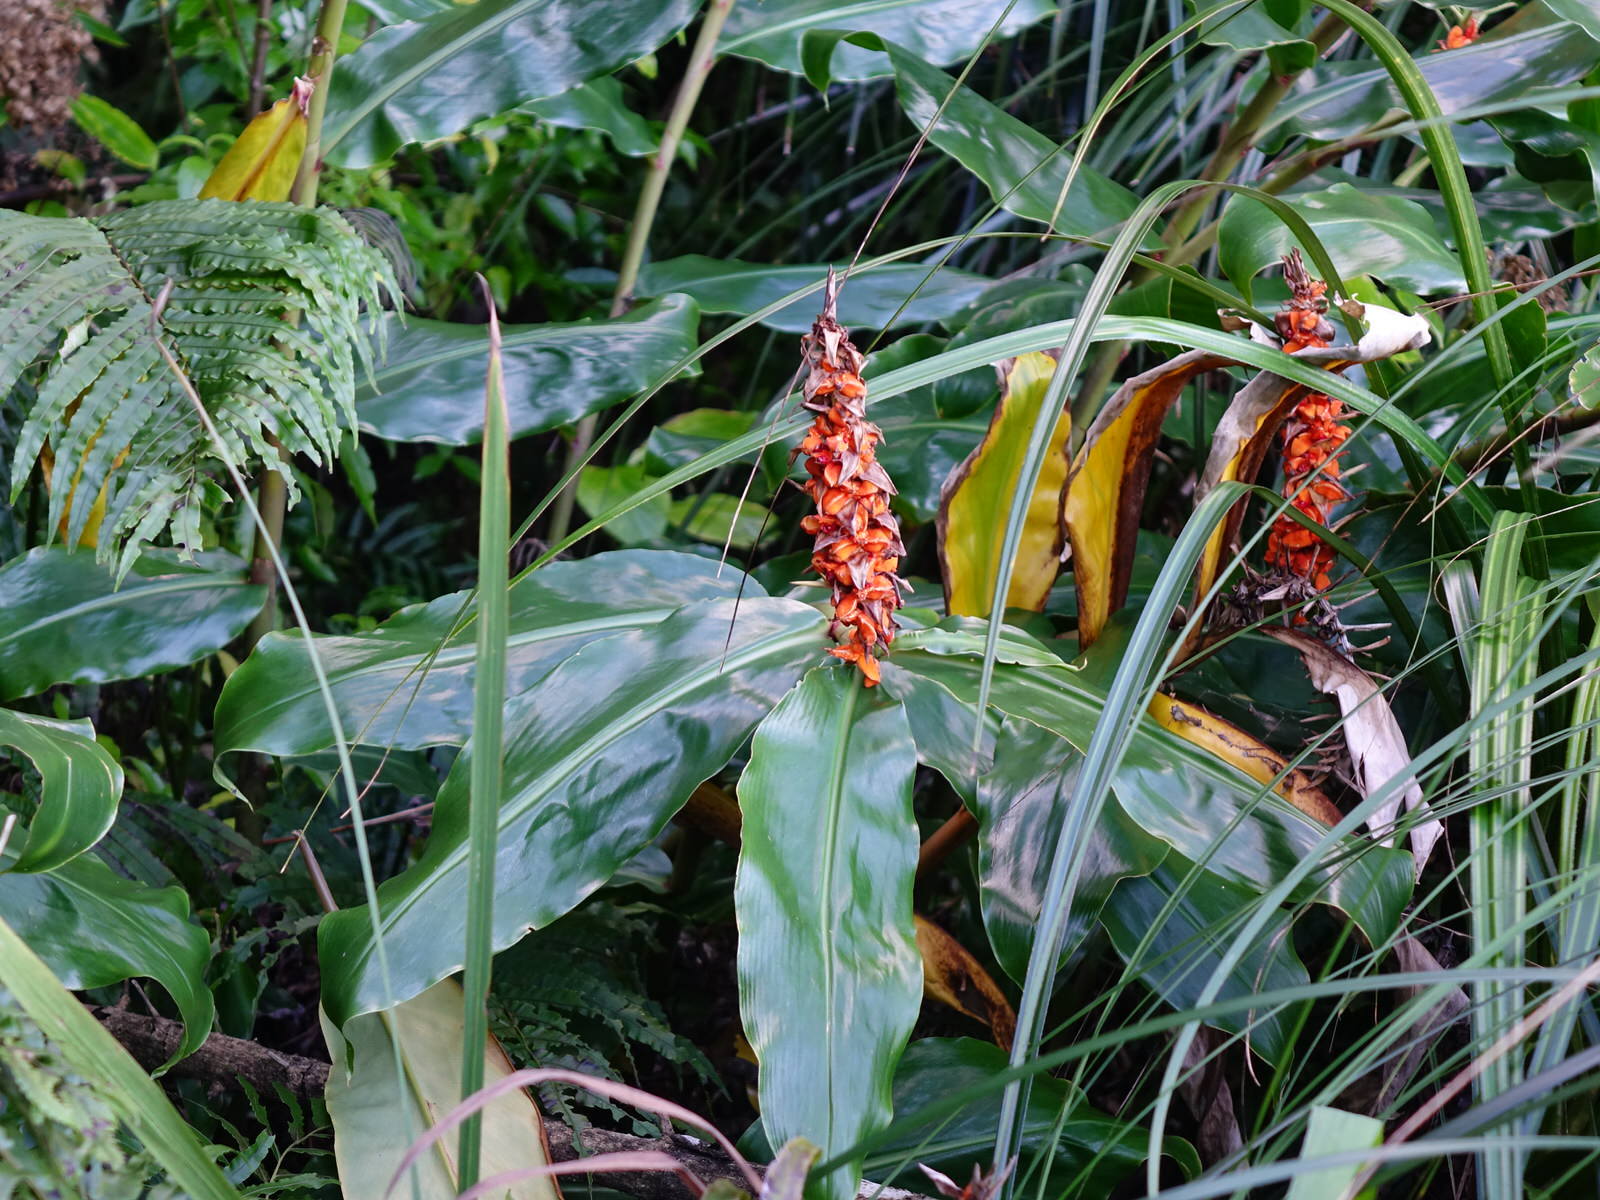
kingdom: Plantae
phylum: Tracheophyta
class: Liliopsida
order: Zingiberales
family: Zingiberaceae
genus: Hedychium
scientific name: Hedychium gardnerianum
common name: Himalayan ginger
